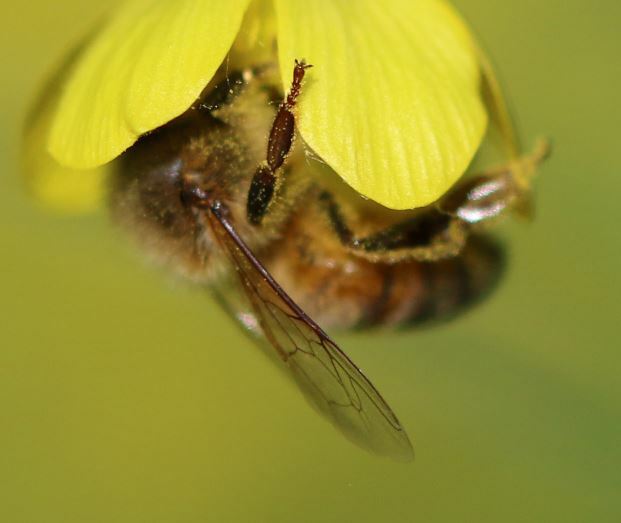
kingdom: Animalia
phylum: Arthropoda
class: Insecta
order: Hymenoptera
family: Apidae
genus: Apis
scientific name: Apis mellifera
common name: Honey bee
